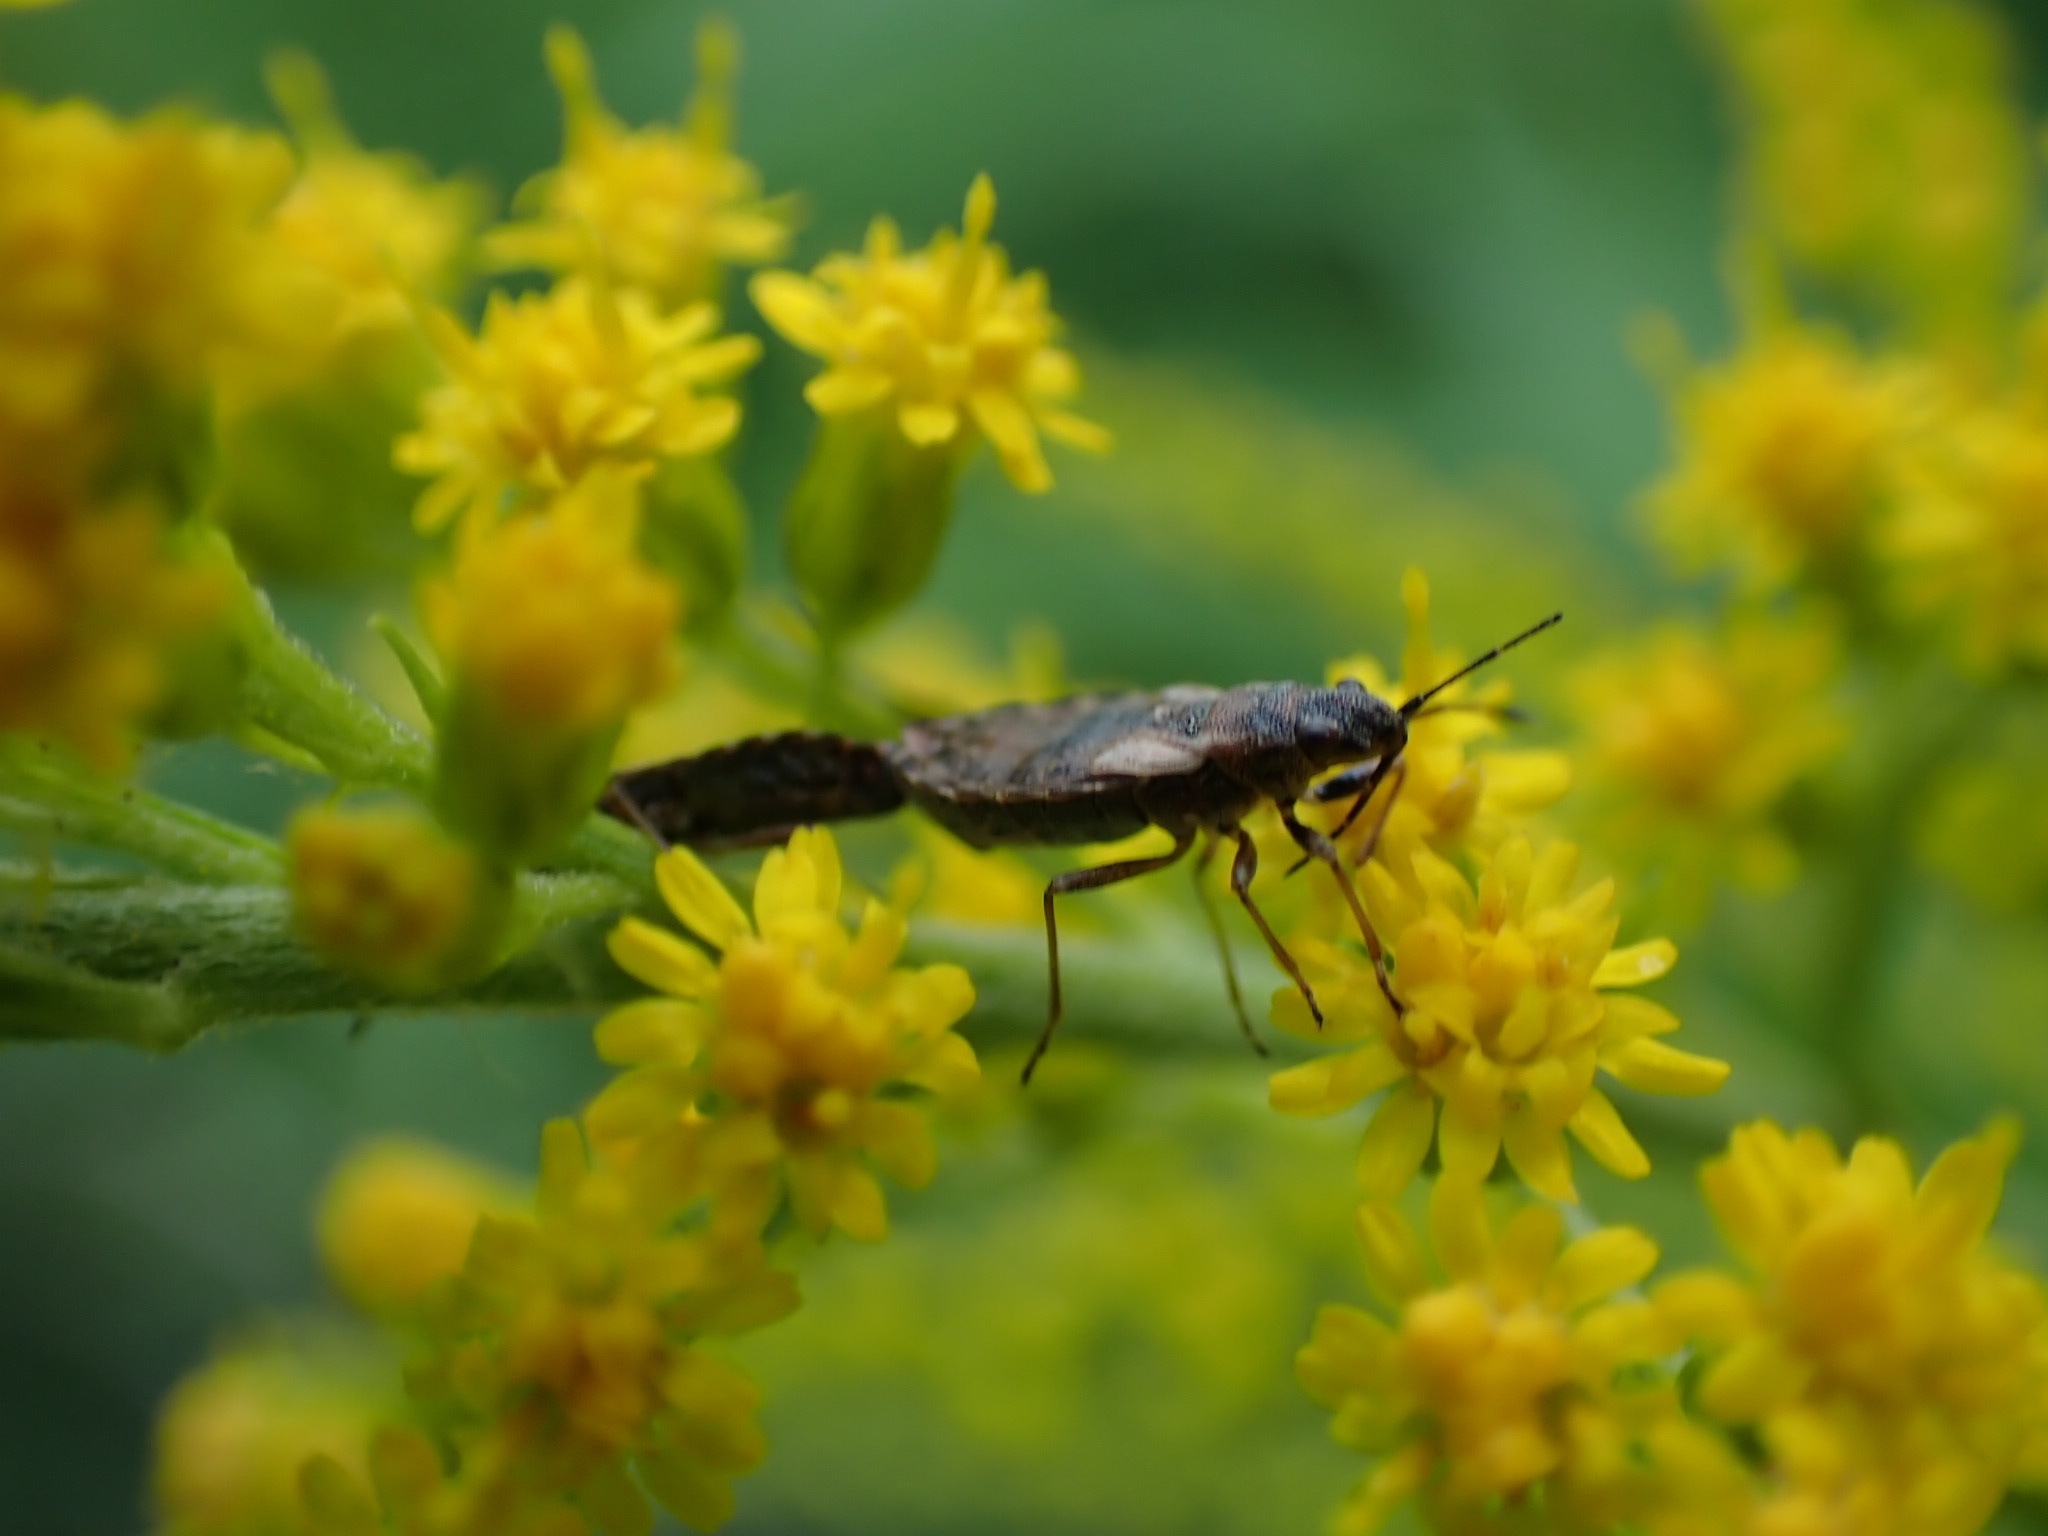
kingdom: Animalia
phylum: Arthropoda
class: Insecta
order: Hemiptera
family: Lygaeidae
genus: Nithecus
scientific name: Nithecus jacobaeae
